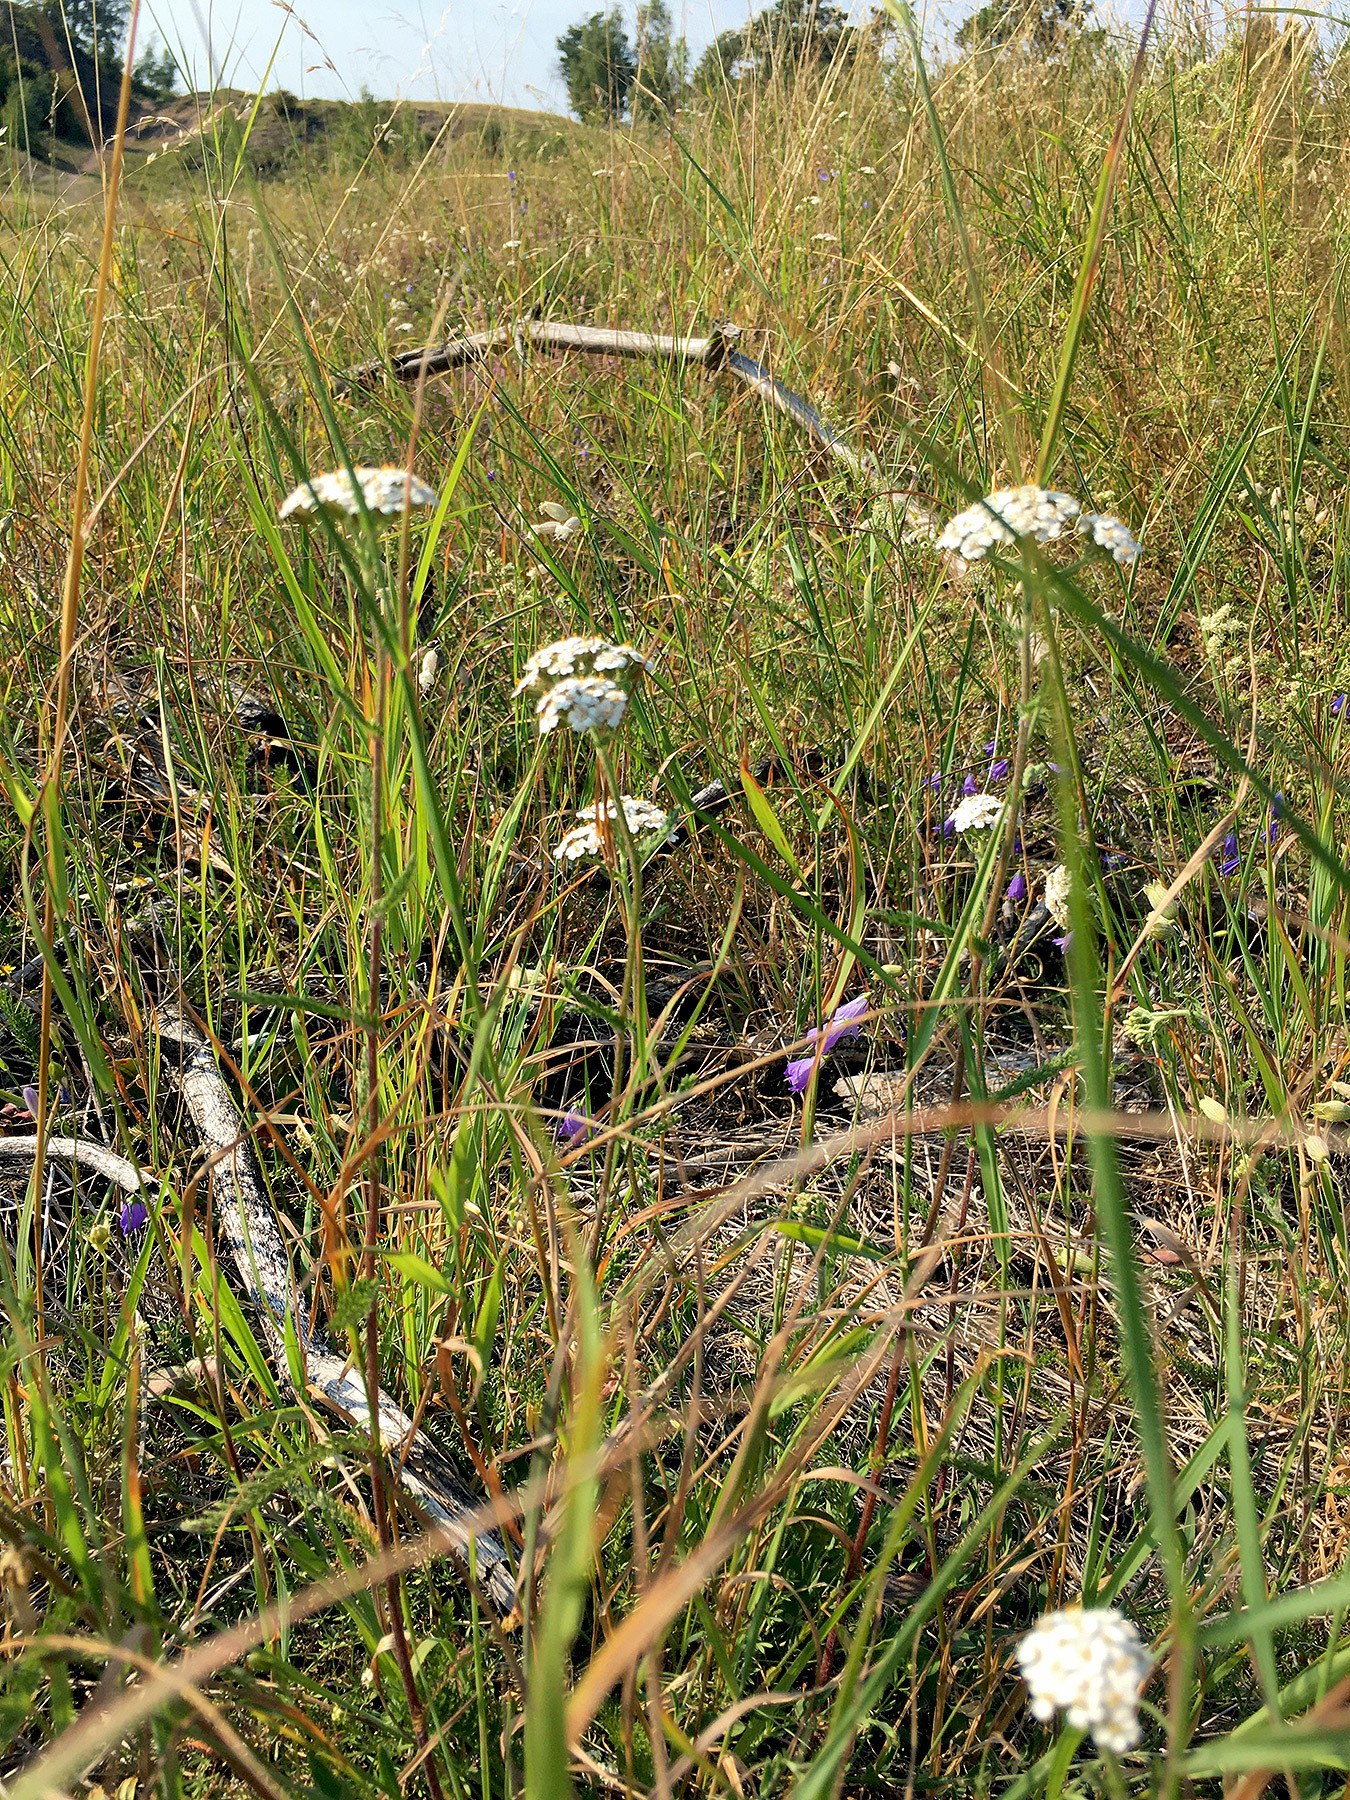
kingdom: Plantae
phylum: Tracheophyta
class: Magnoliopsida
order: Asterales
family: Asteraceae
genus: Achillea
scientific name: Achillea millefolium
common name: Yarrow
